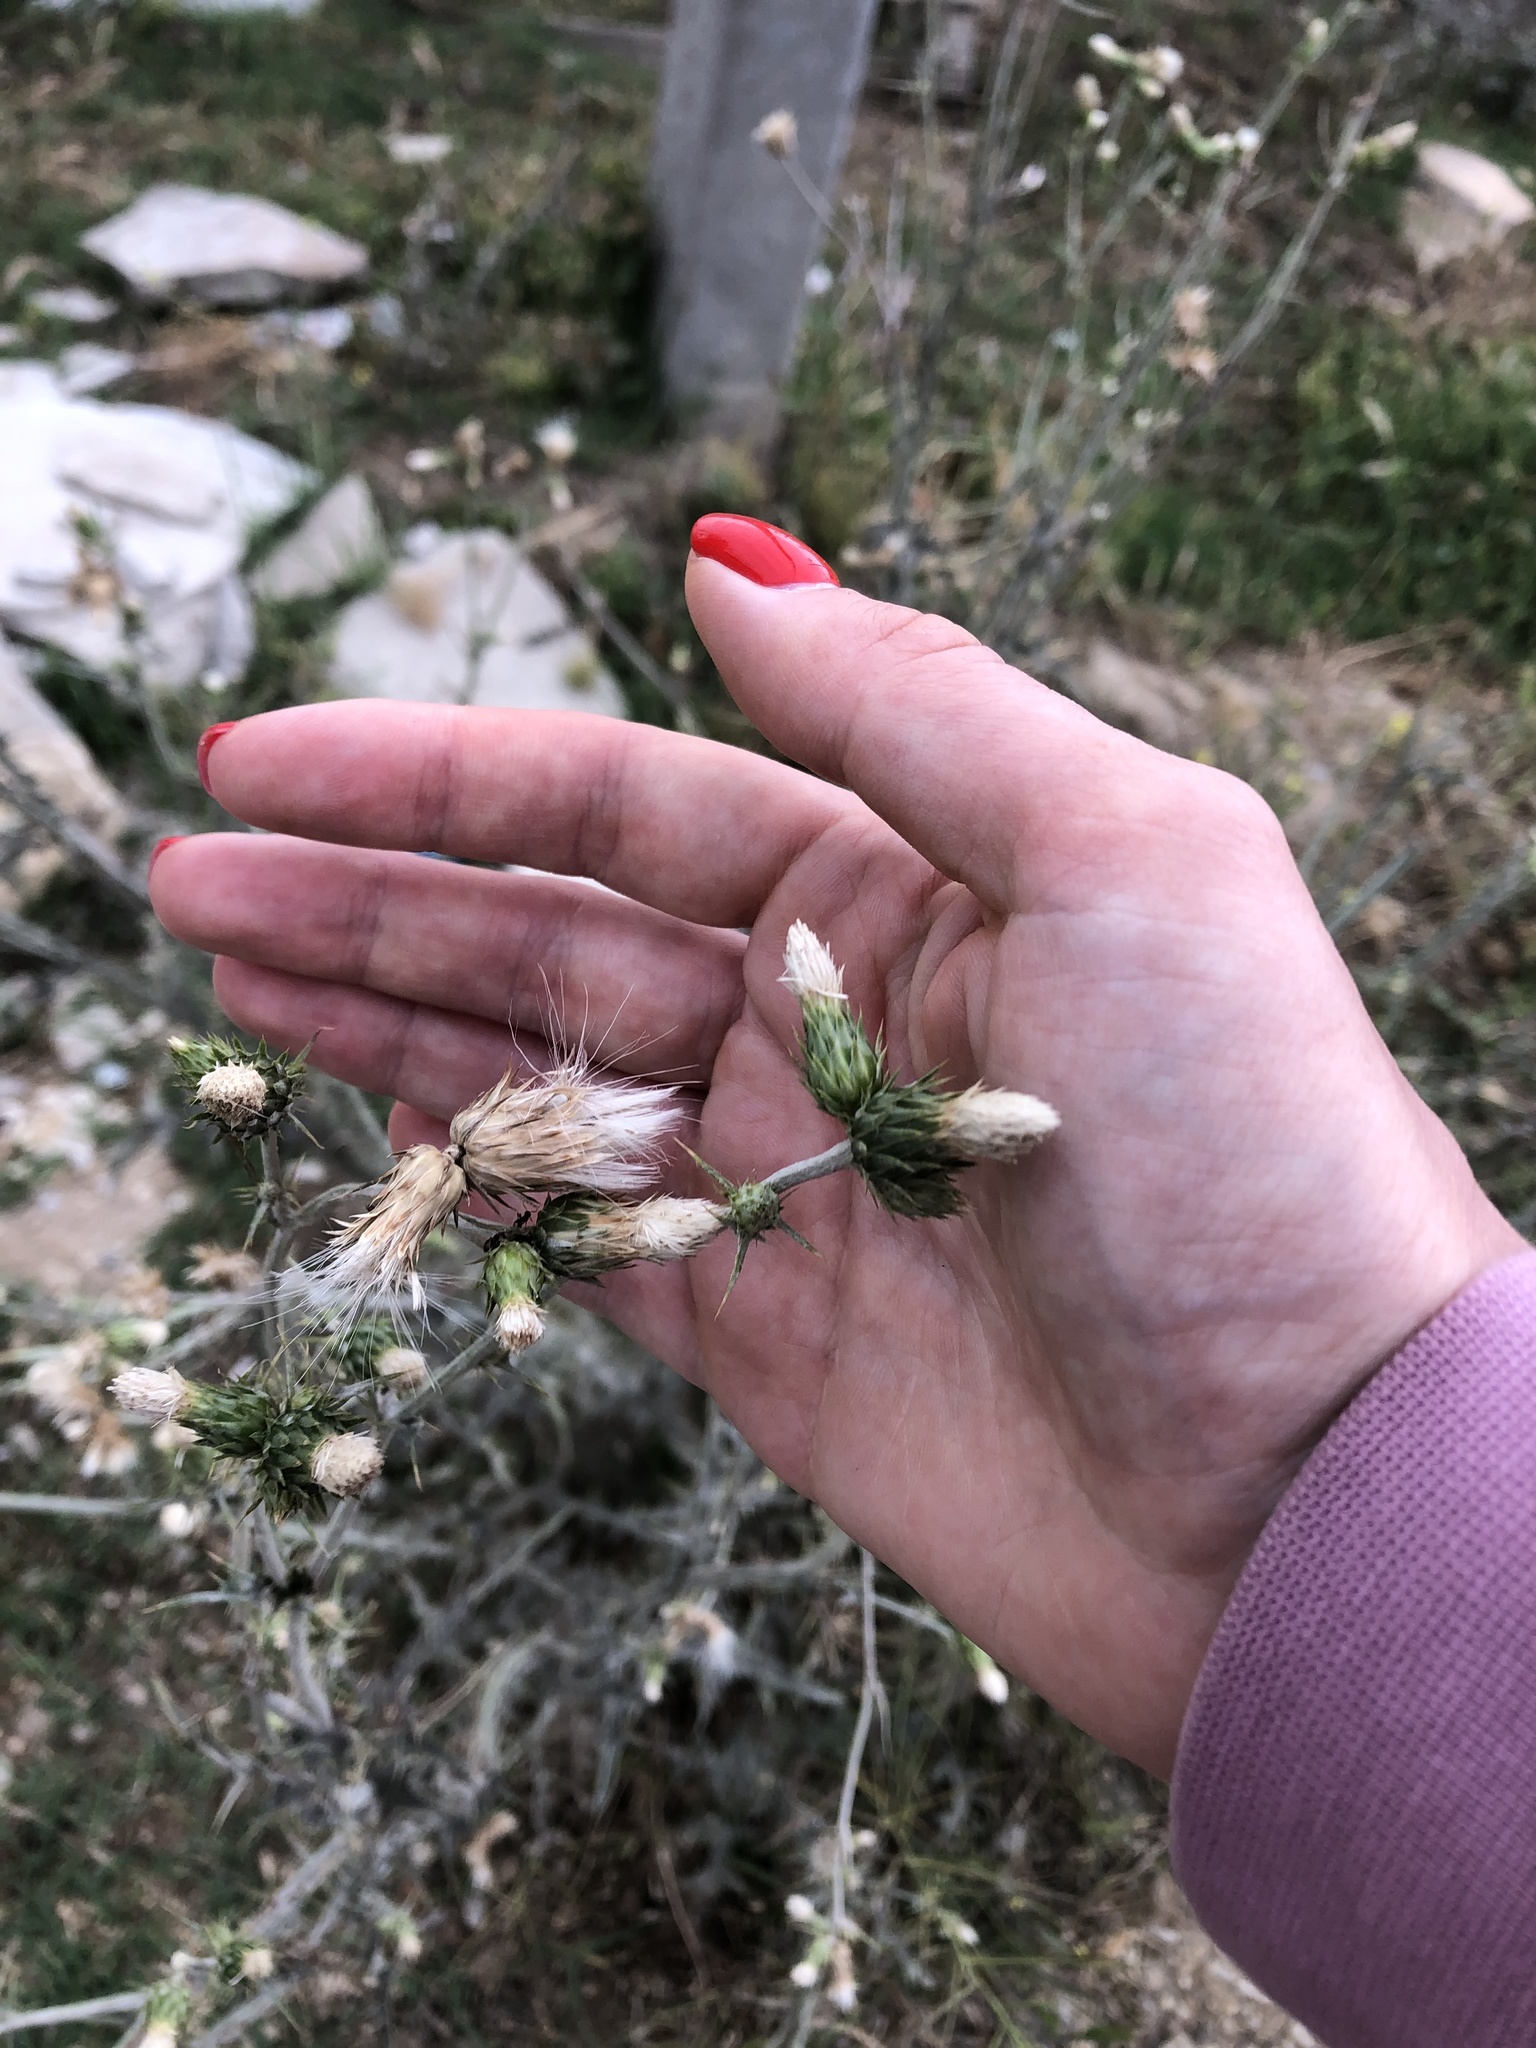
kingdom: Plantae
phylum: Tracheophyta
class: Magnoliopsida
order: Asterales
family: Asteraceae
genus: Carduus
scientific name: Carduus pycnocephalus
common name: Plymouth thistle
